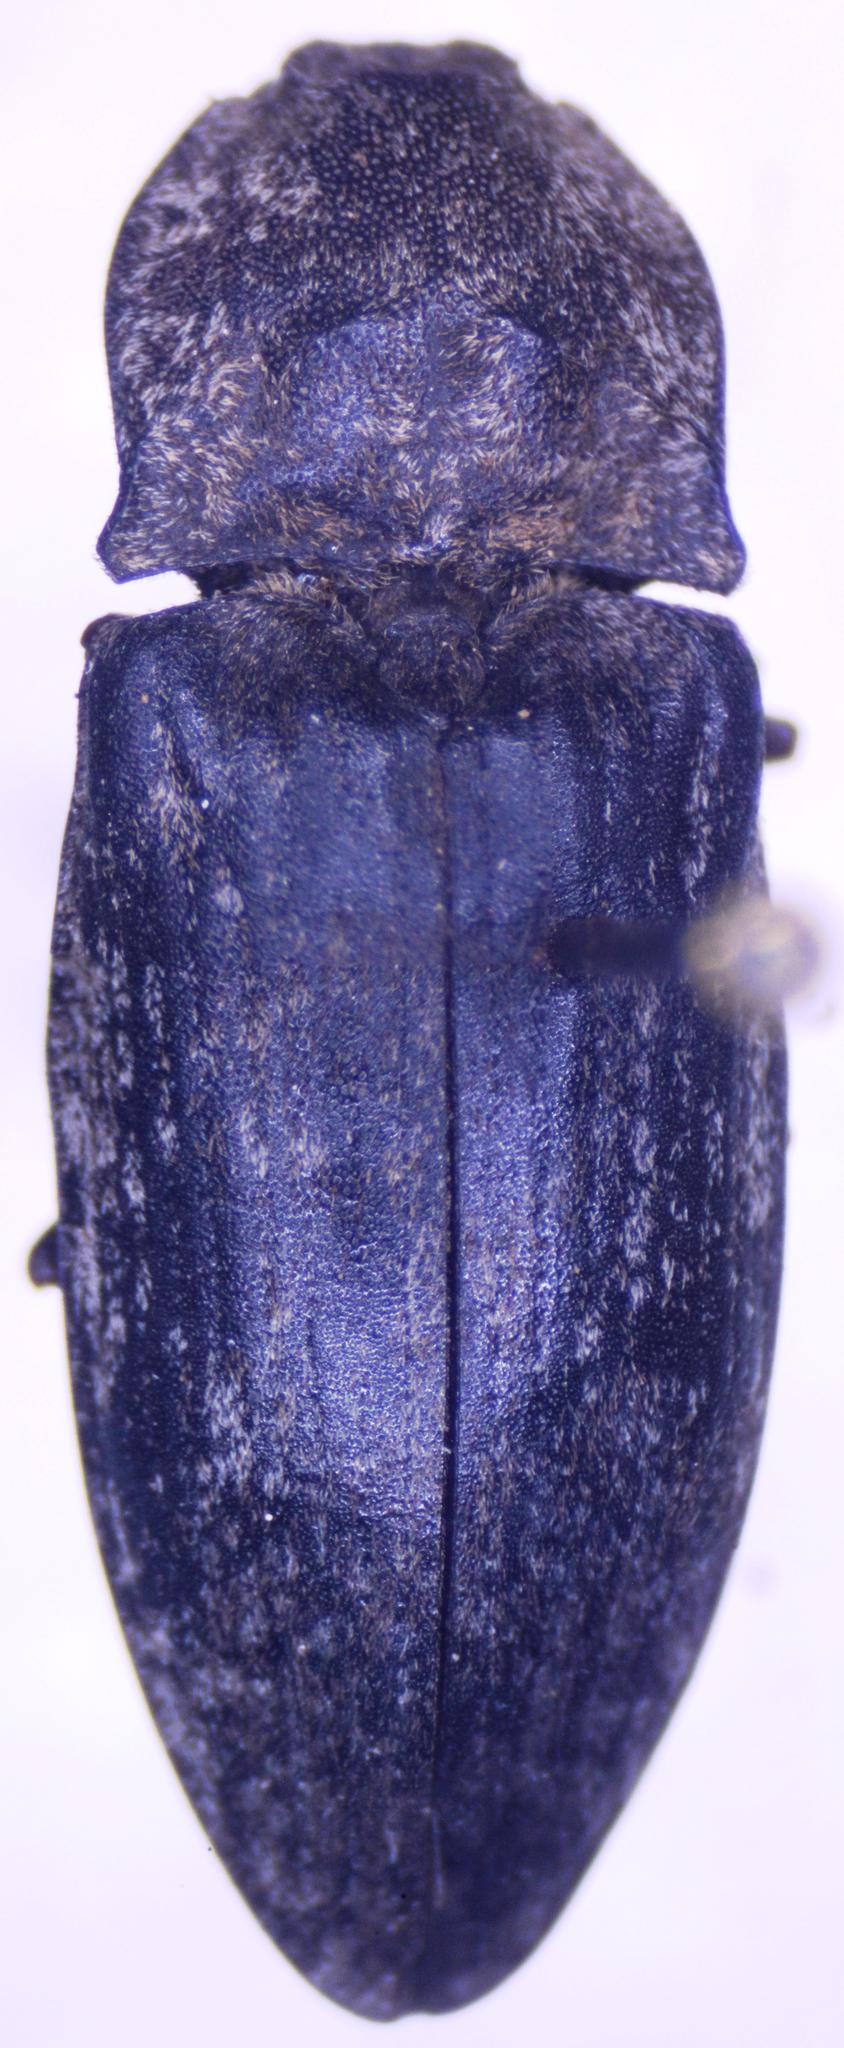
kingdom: Animalia
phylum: Arthropoda
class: Insecta
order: Coleoptera
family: Elateridae
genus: Agrypnus
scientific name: Agrypnus murinus
